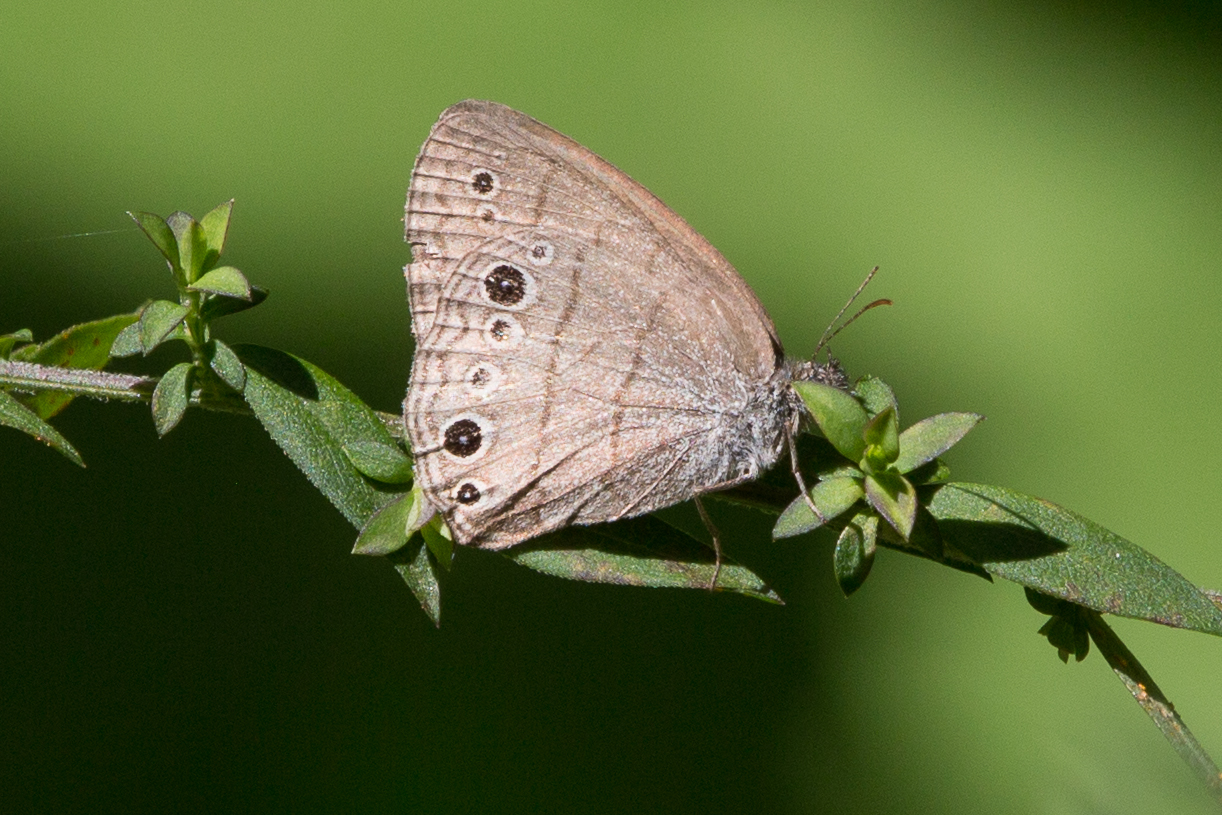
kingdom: Animalia
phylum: Arthropoda
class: Insecta
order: Lepidoptera
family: Nymphalidae
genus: Hermeuptychia
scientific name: Hermeuptychia hermes
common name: Hermes satyr
